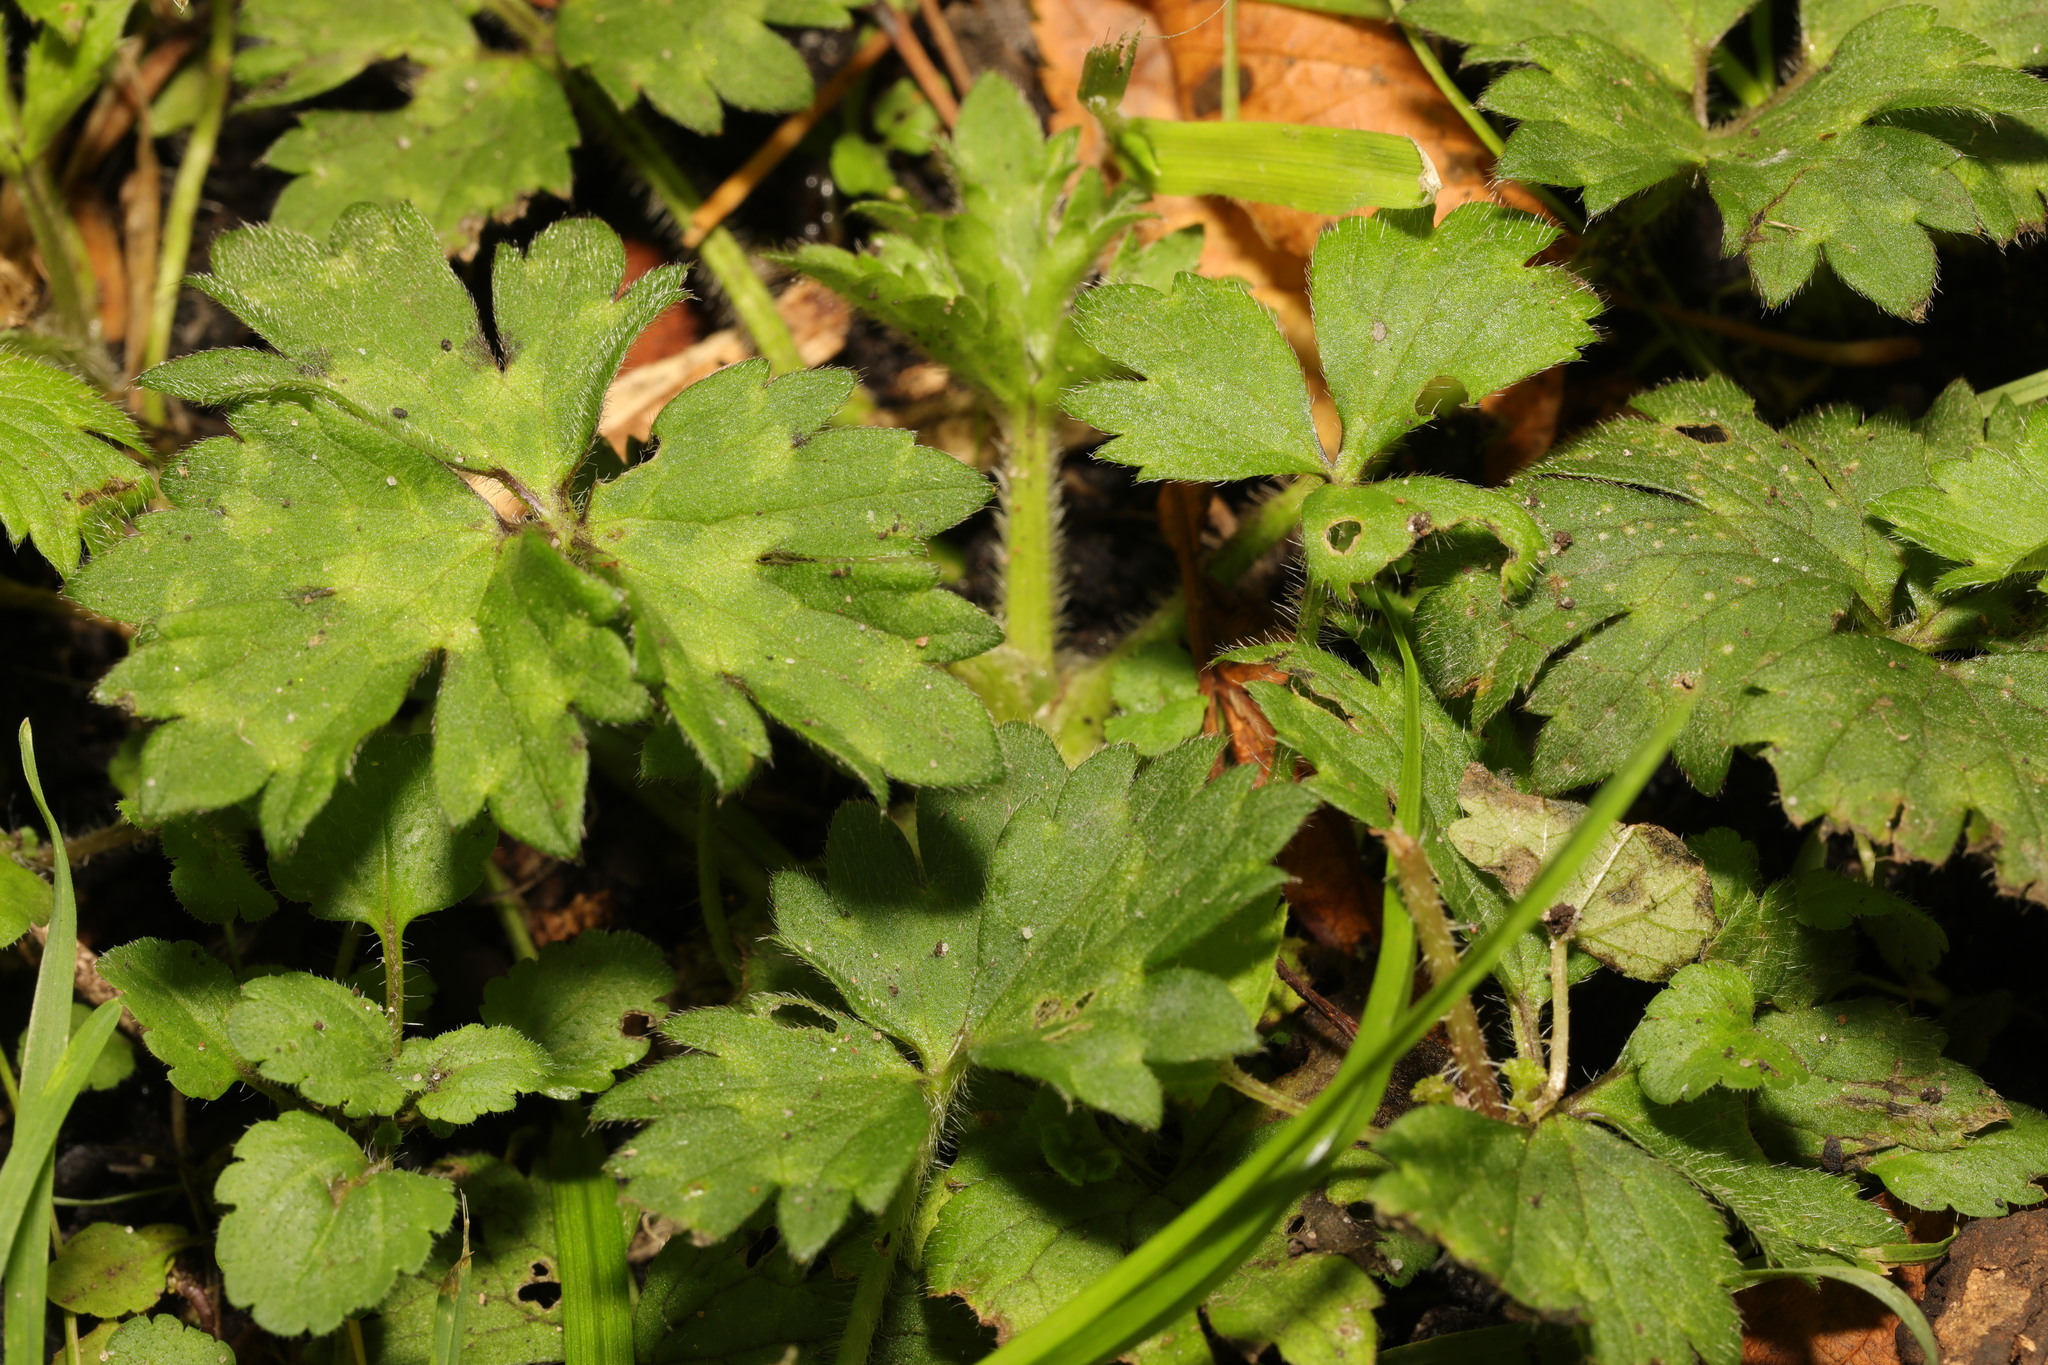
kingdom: Plantae
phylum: Tracheophyta
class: Magnoliopsida
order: Ranunculales
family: Ranunculaceae
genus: Ranunculus
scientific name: Ranunculus repens
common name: Creeping buttercup
